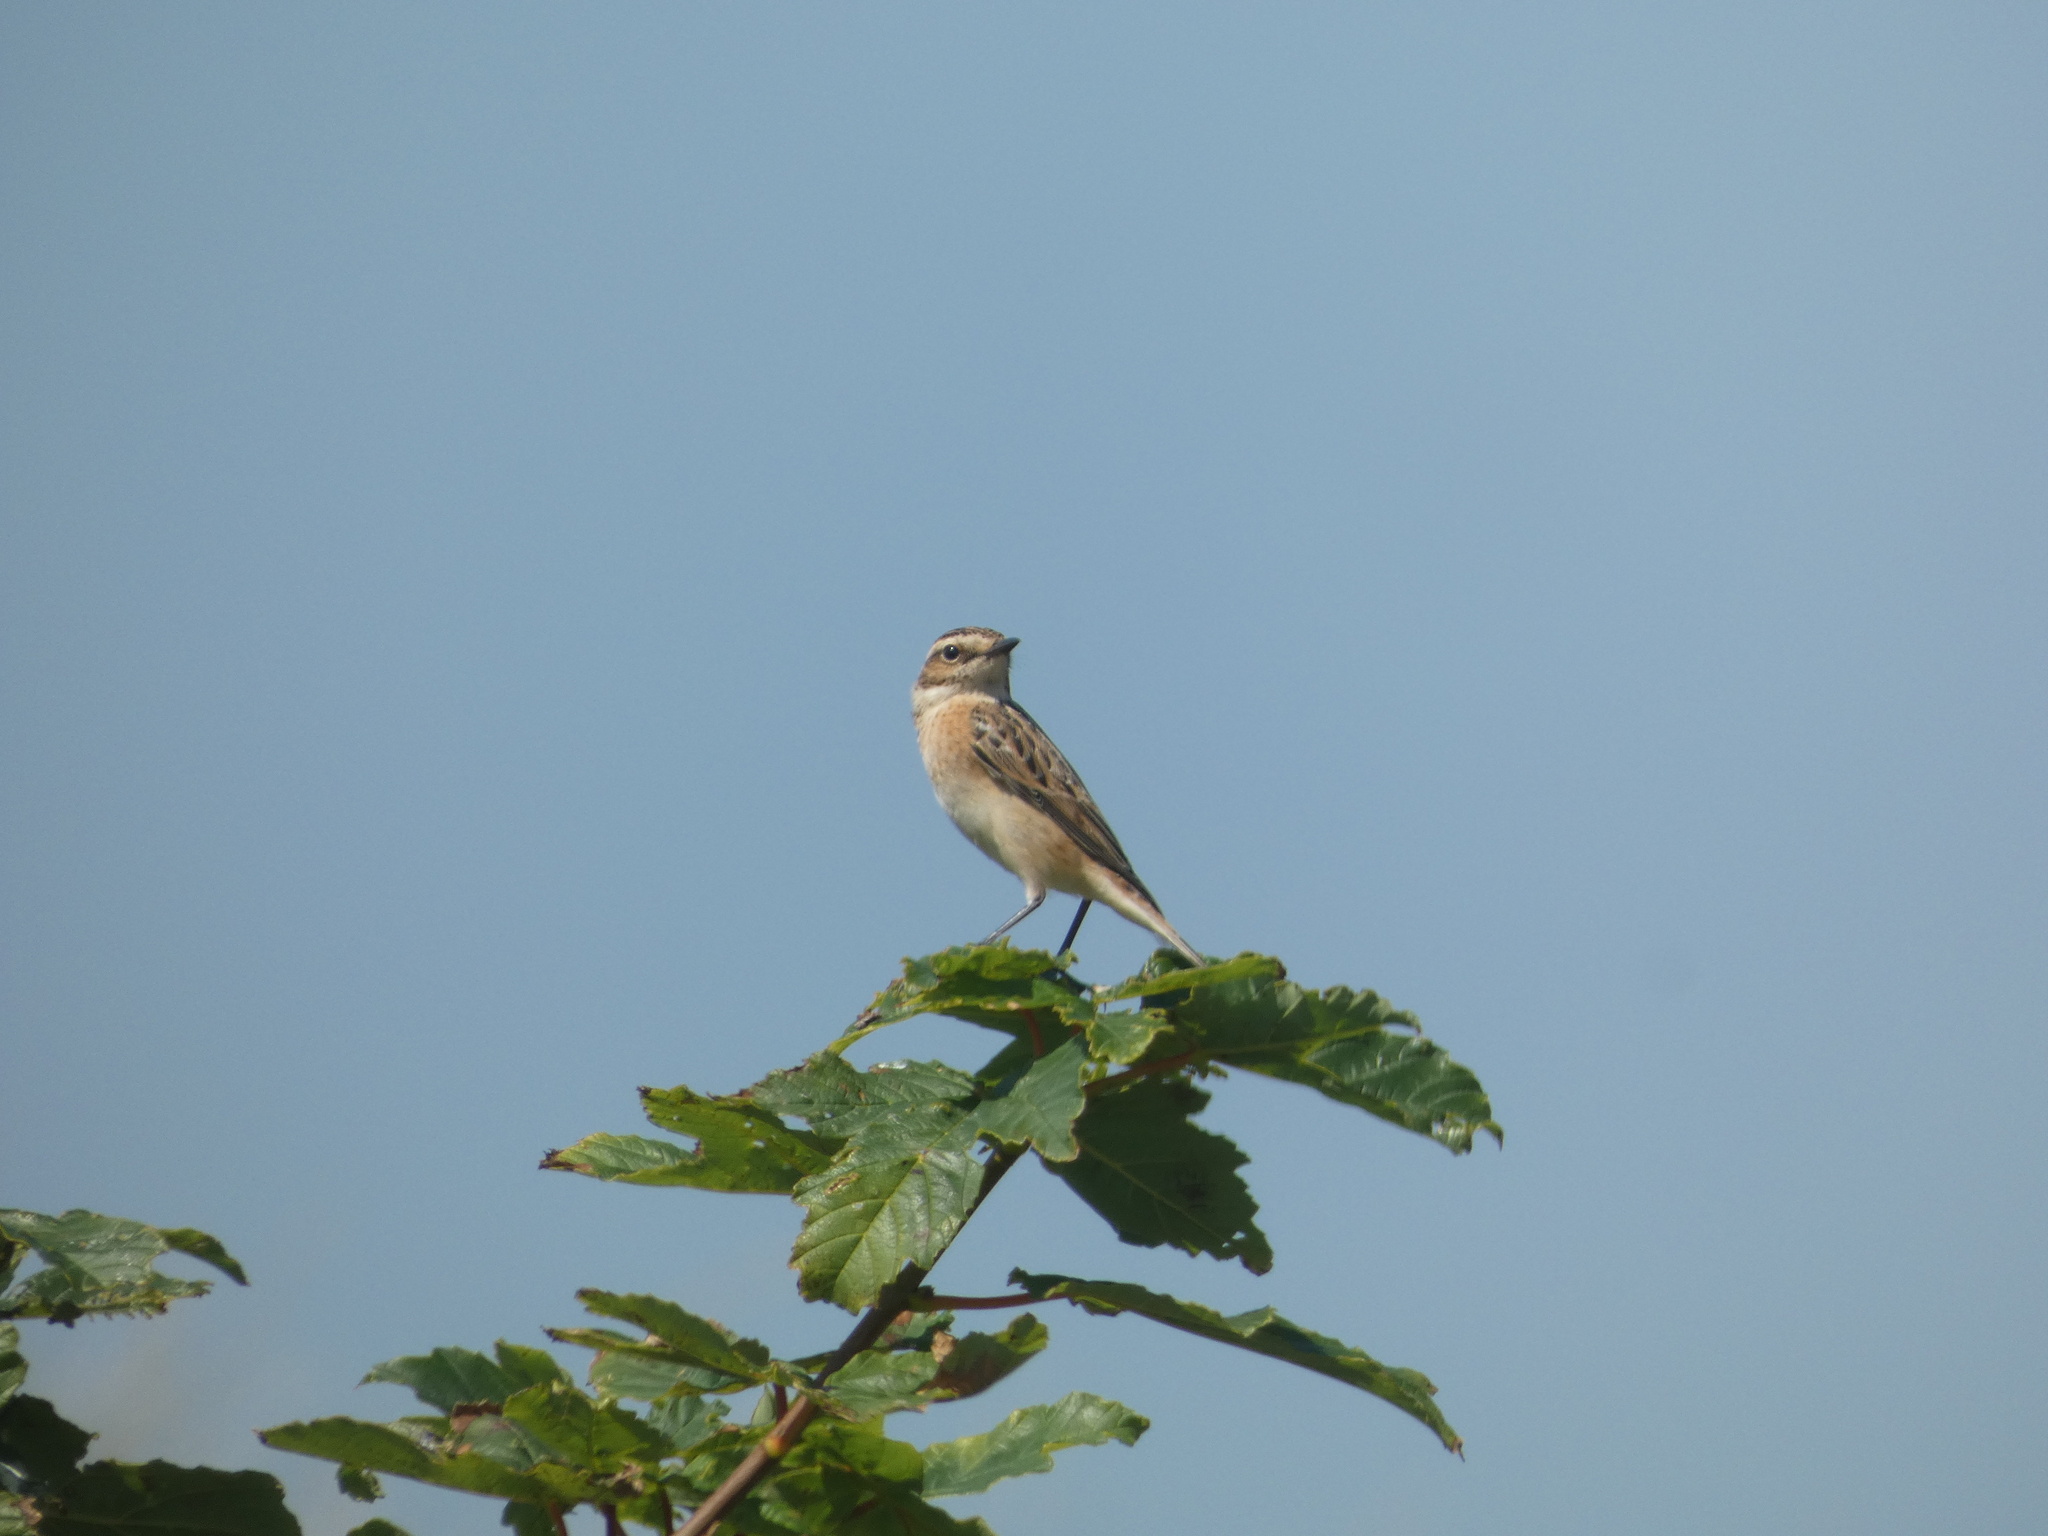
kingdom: Animalia
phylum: Chordata
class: Aves
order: Passeriformes
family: Muscicapidae
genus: Saxicola
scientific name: Saxicola rubetra
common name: Whinchat
